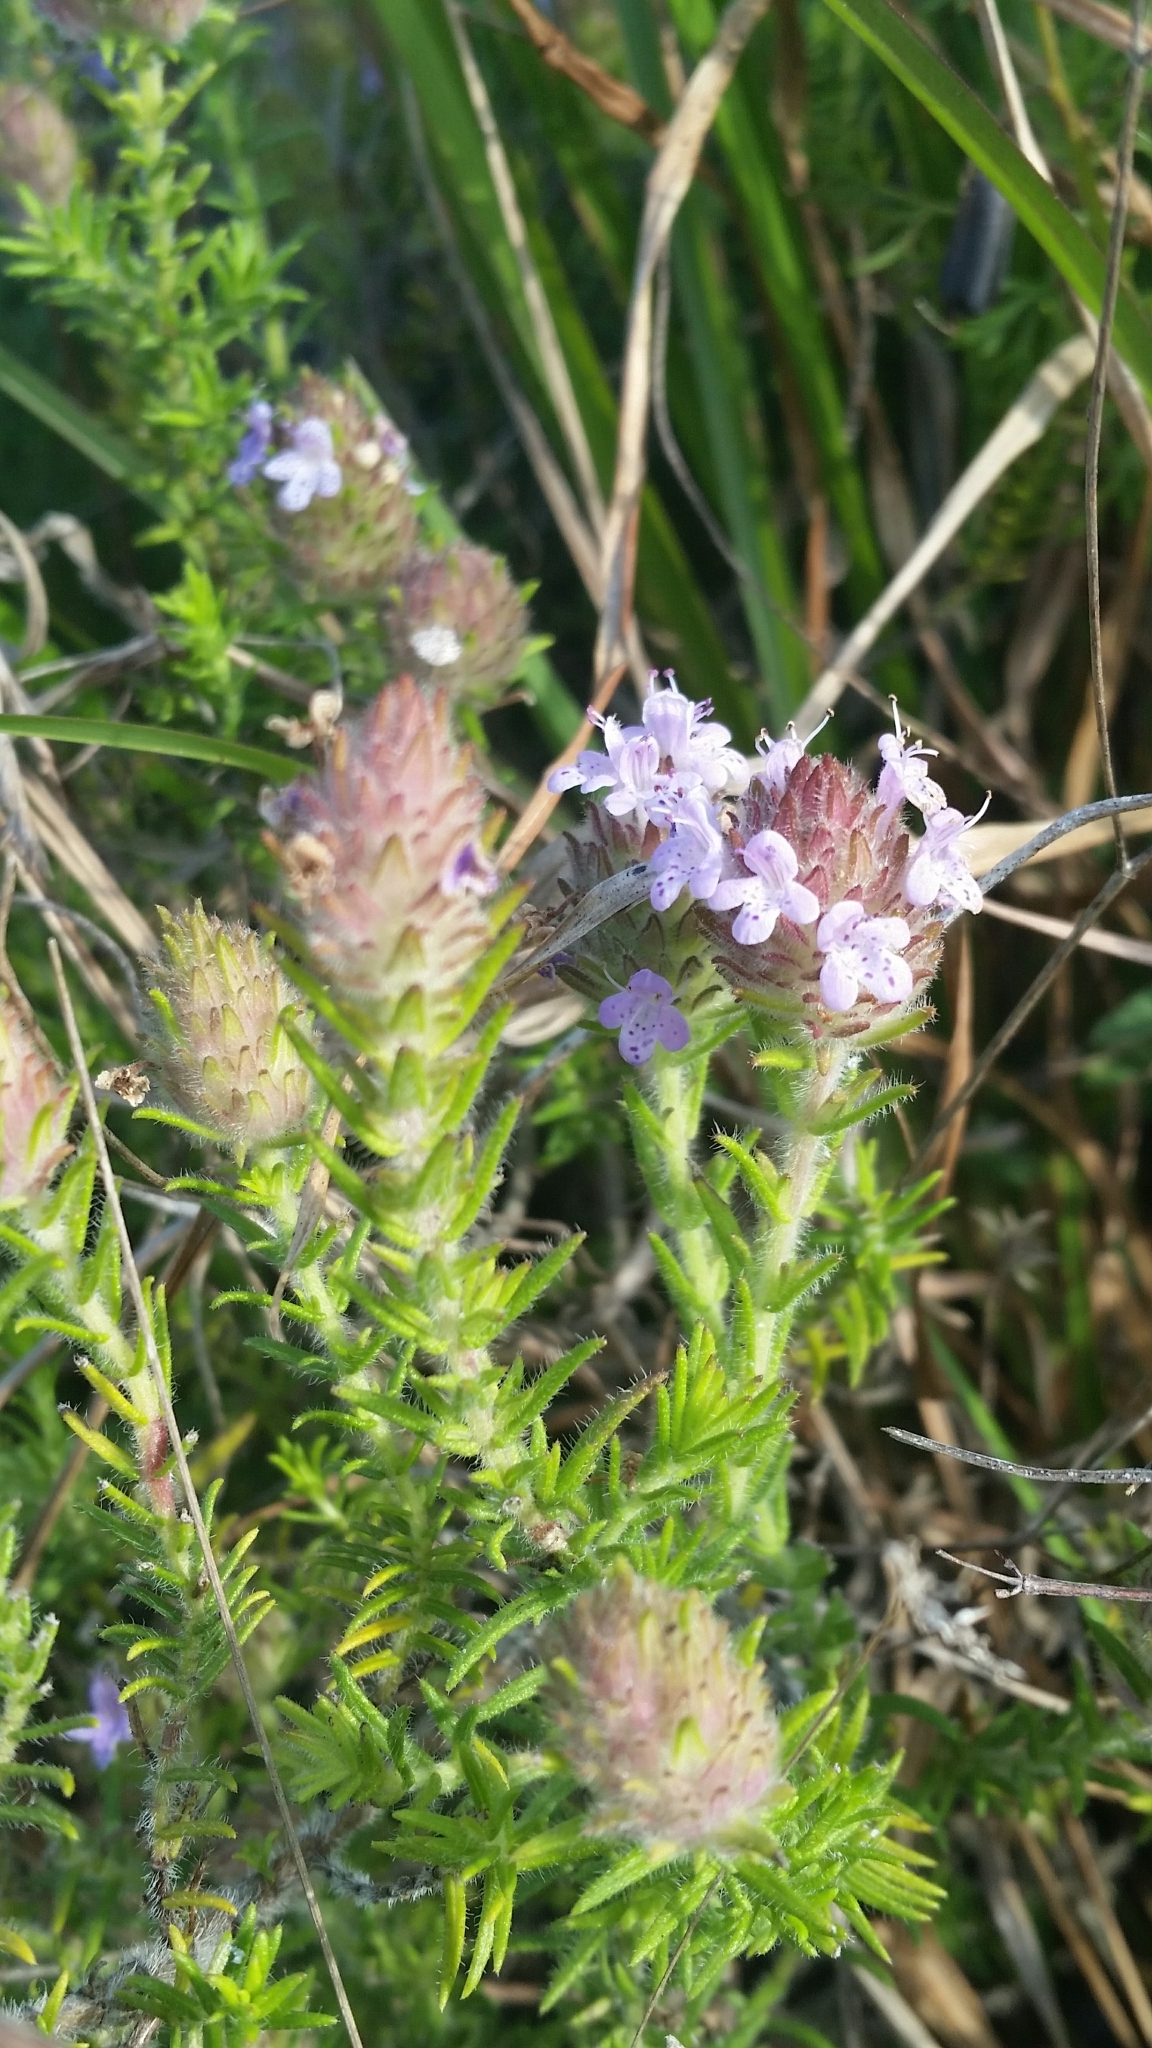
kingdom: Plantae
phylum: Tracheophyta
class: Magnoliopsida
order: Lamiales
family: Lamiaceae
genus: Piloblephis
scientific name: Piloblephis rigida
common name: Wild pennyroyal
